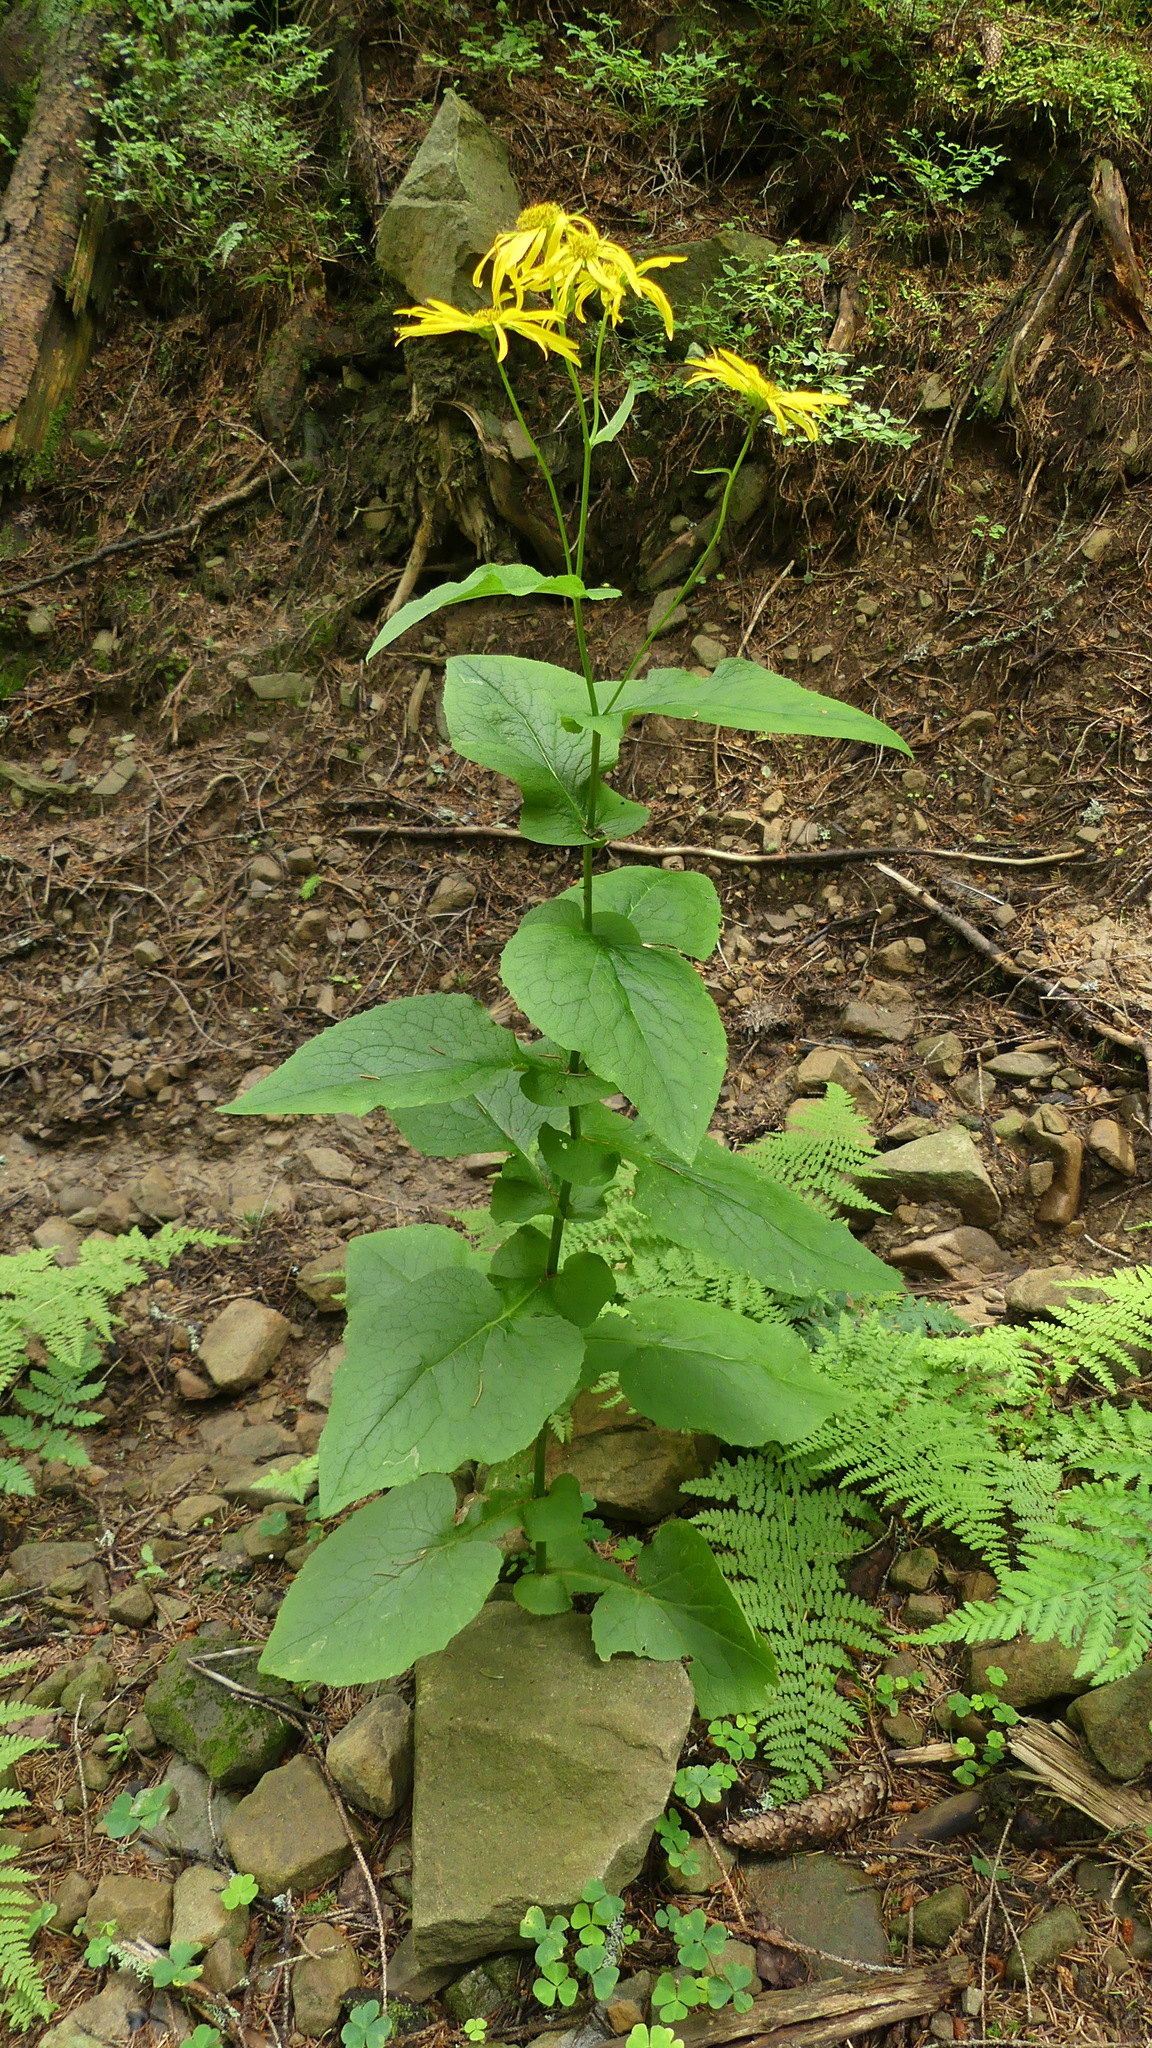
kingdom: Plantae
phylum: Tracheophyta
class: Magnoliopsida
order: Asterales
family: Asteraceae
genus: Doronicum
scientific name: Doronicum austriacum
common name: Austrian leopard's-bane
